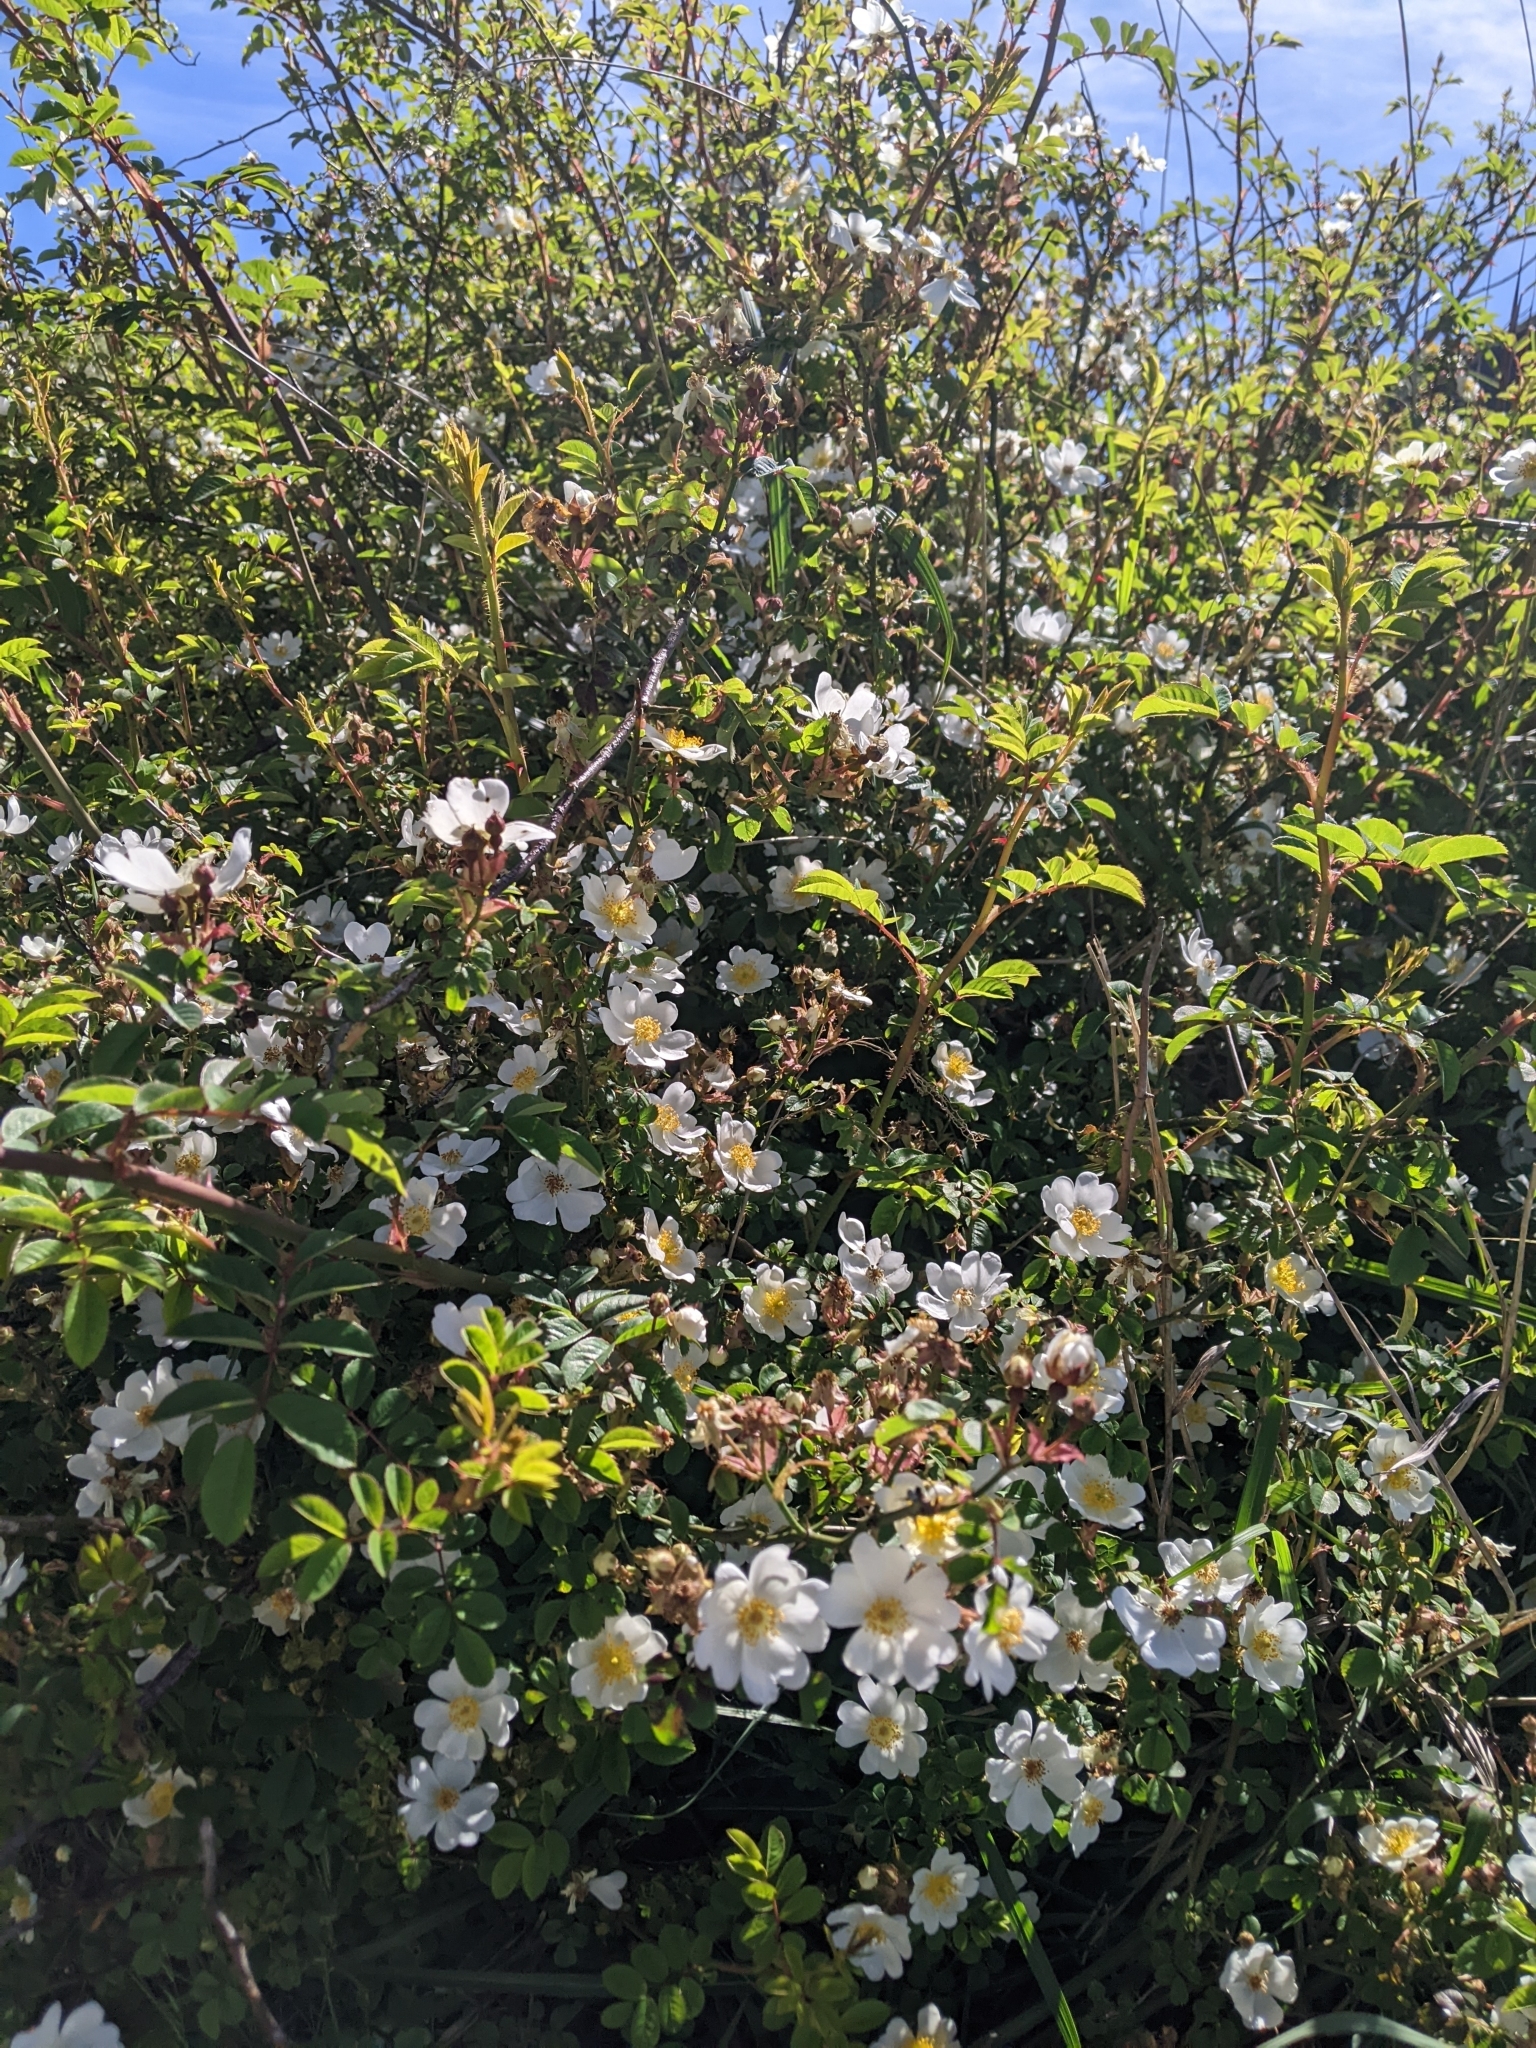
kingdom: Plantae
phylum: Tracheophyta
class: Magnoliopsida
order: Rosales
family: Rosaceae
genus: Rosa
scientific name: Rosa transmorrisonensis
